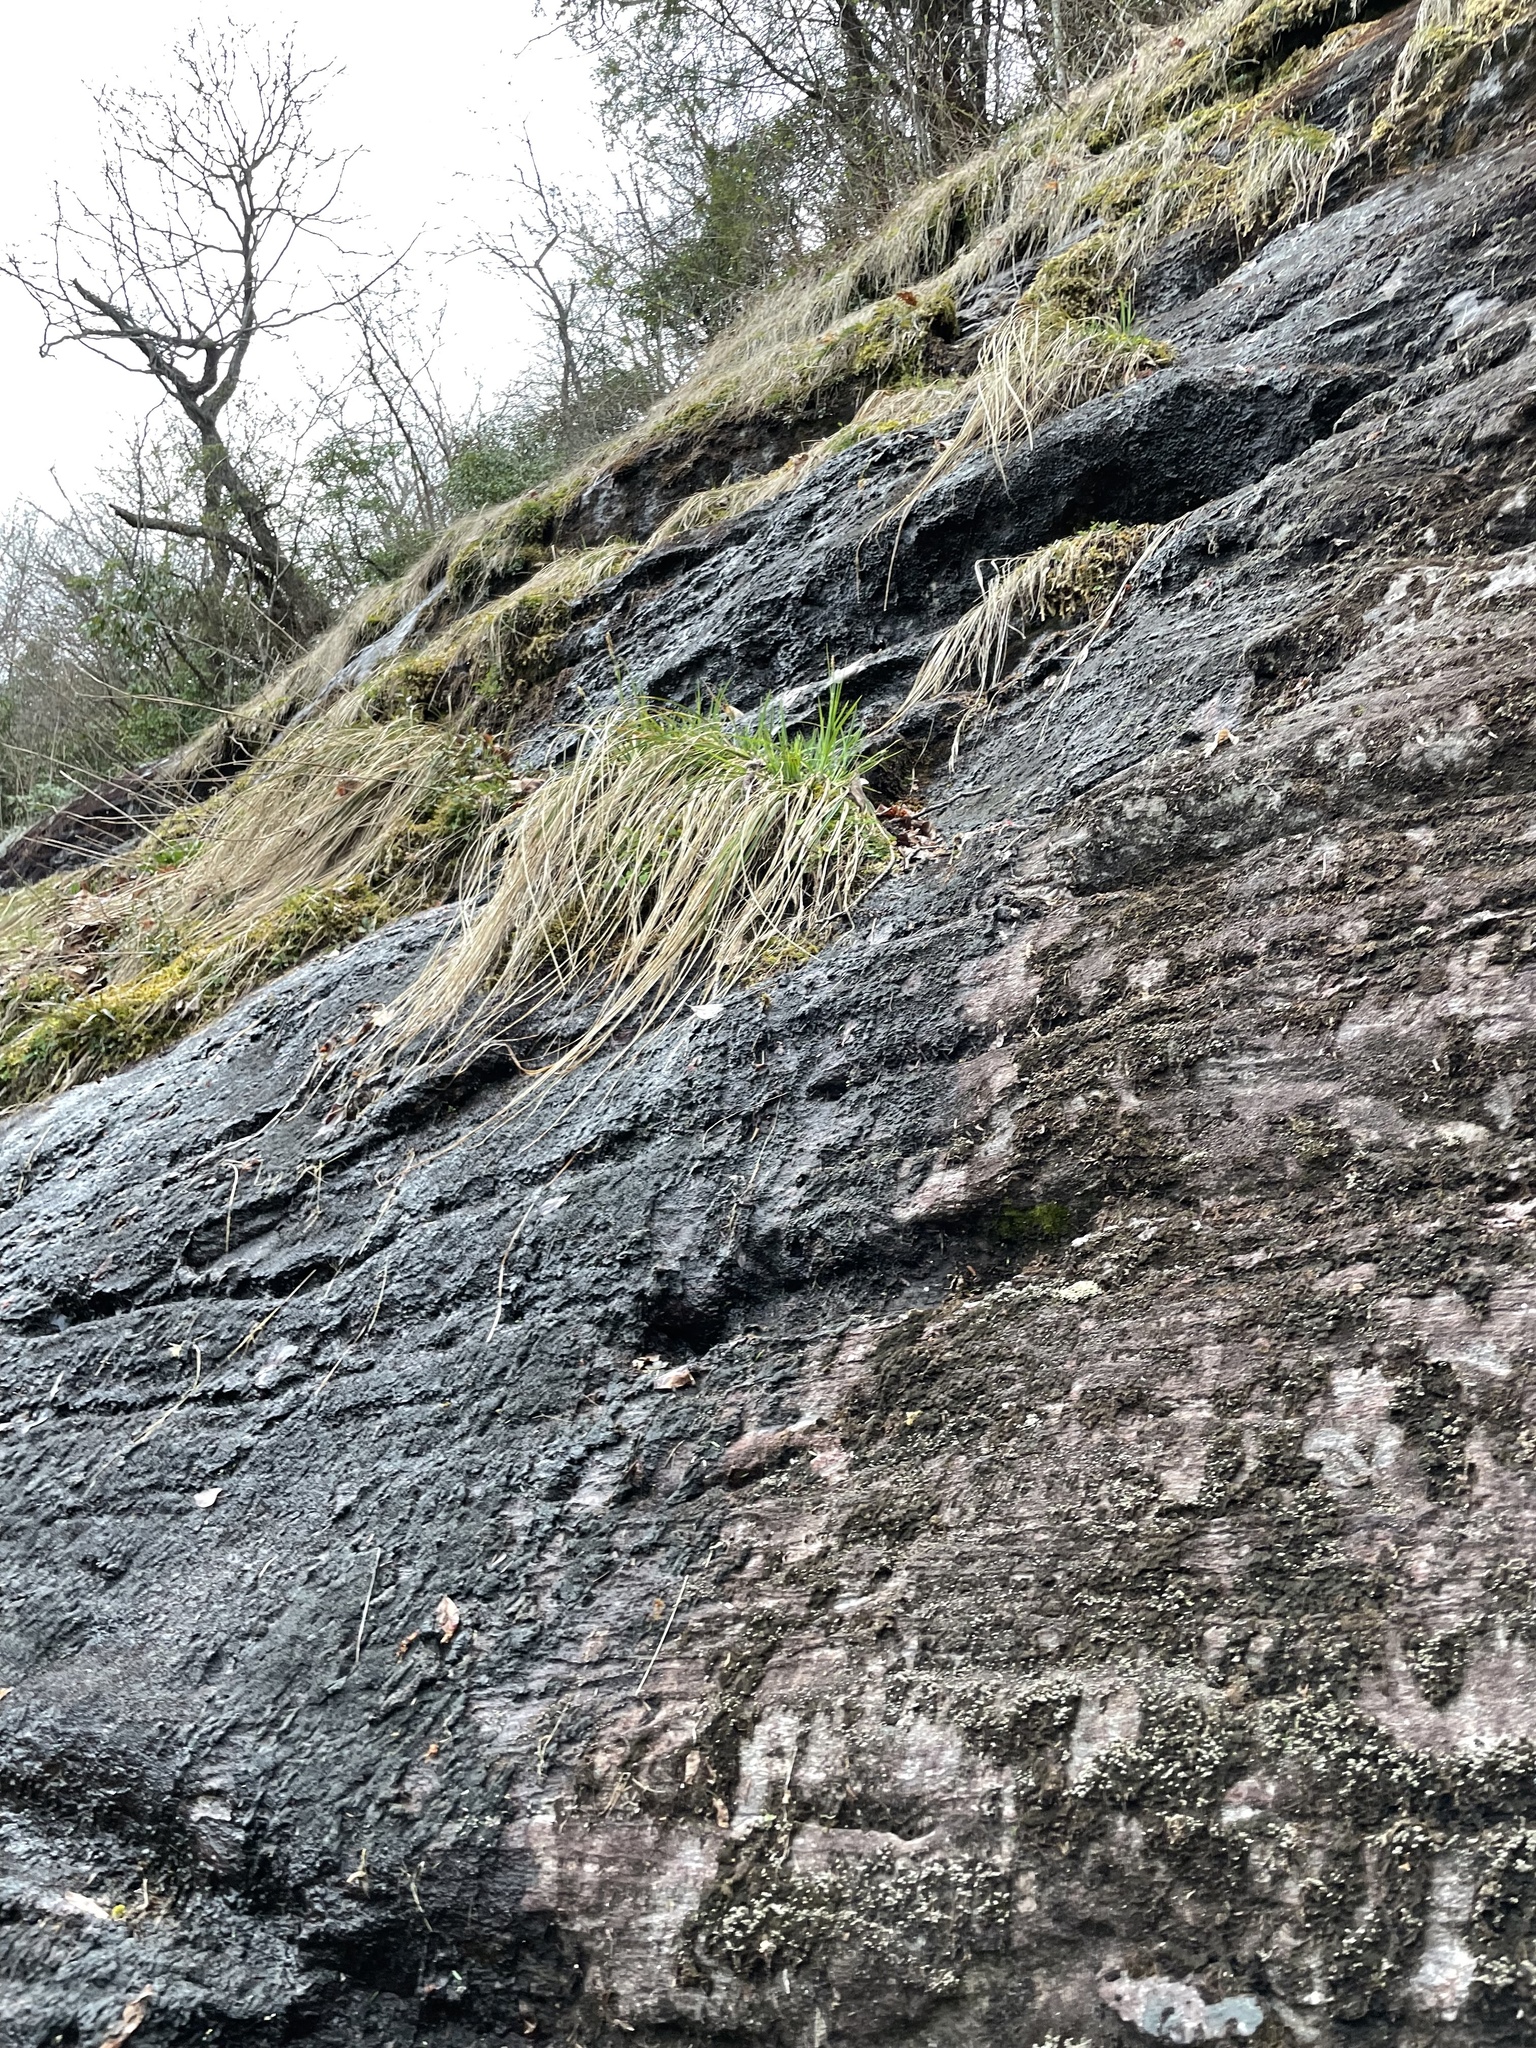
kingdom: Plantae
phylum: Tracheophyta
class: Liliopsida
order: Poales
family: Cyperaceae
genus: Carex
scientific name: Carex biltmoreana
